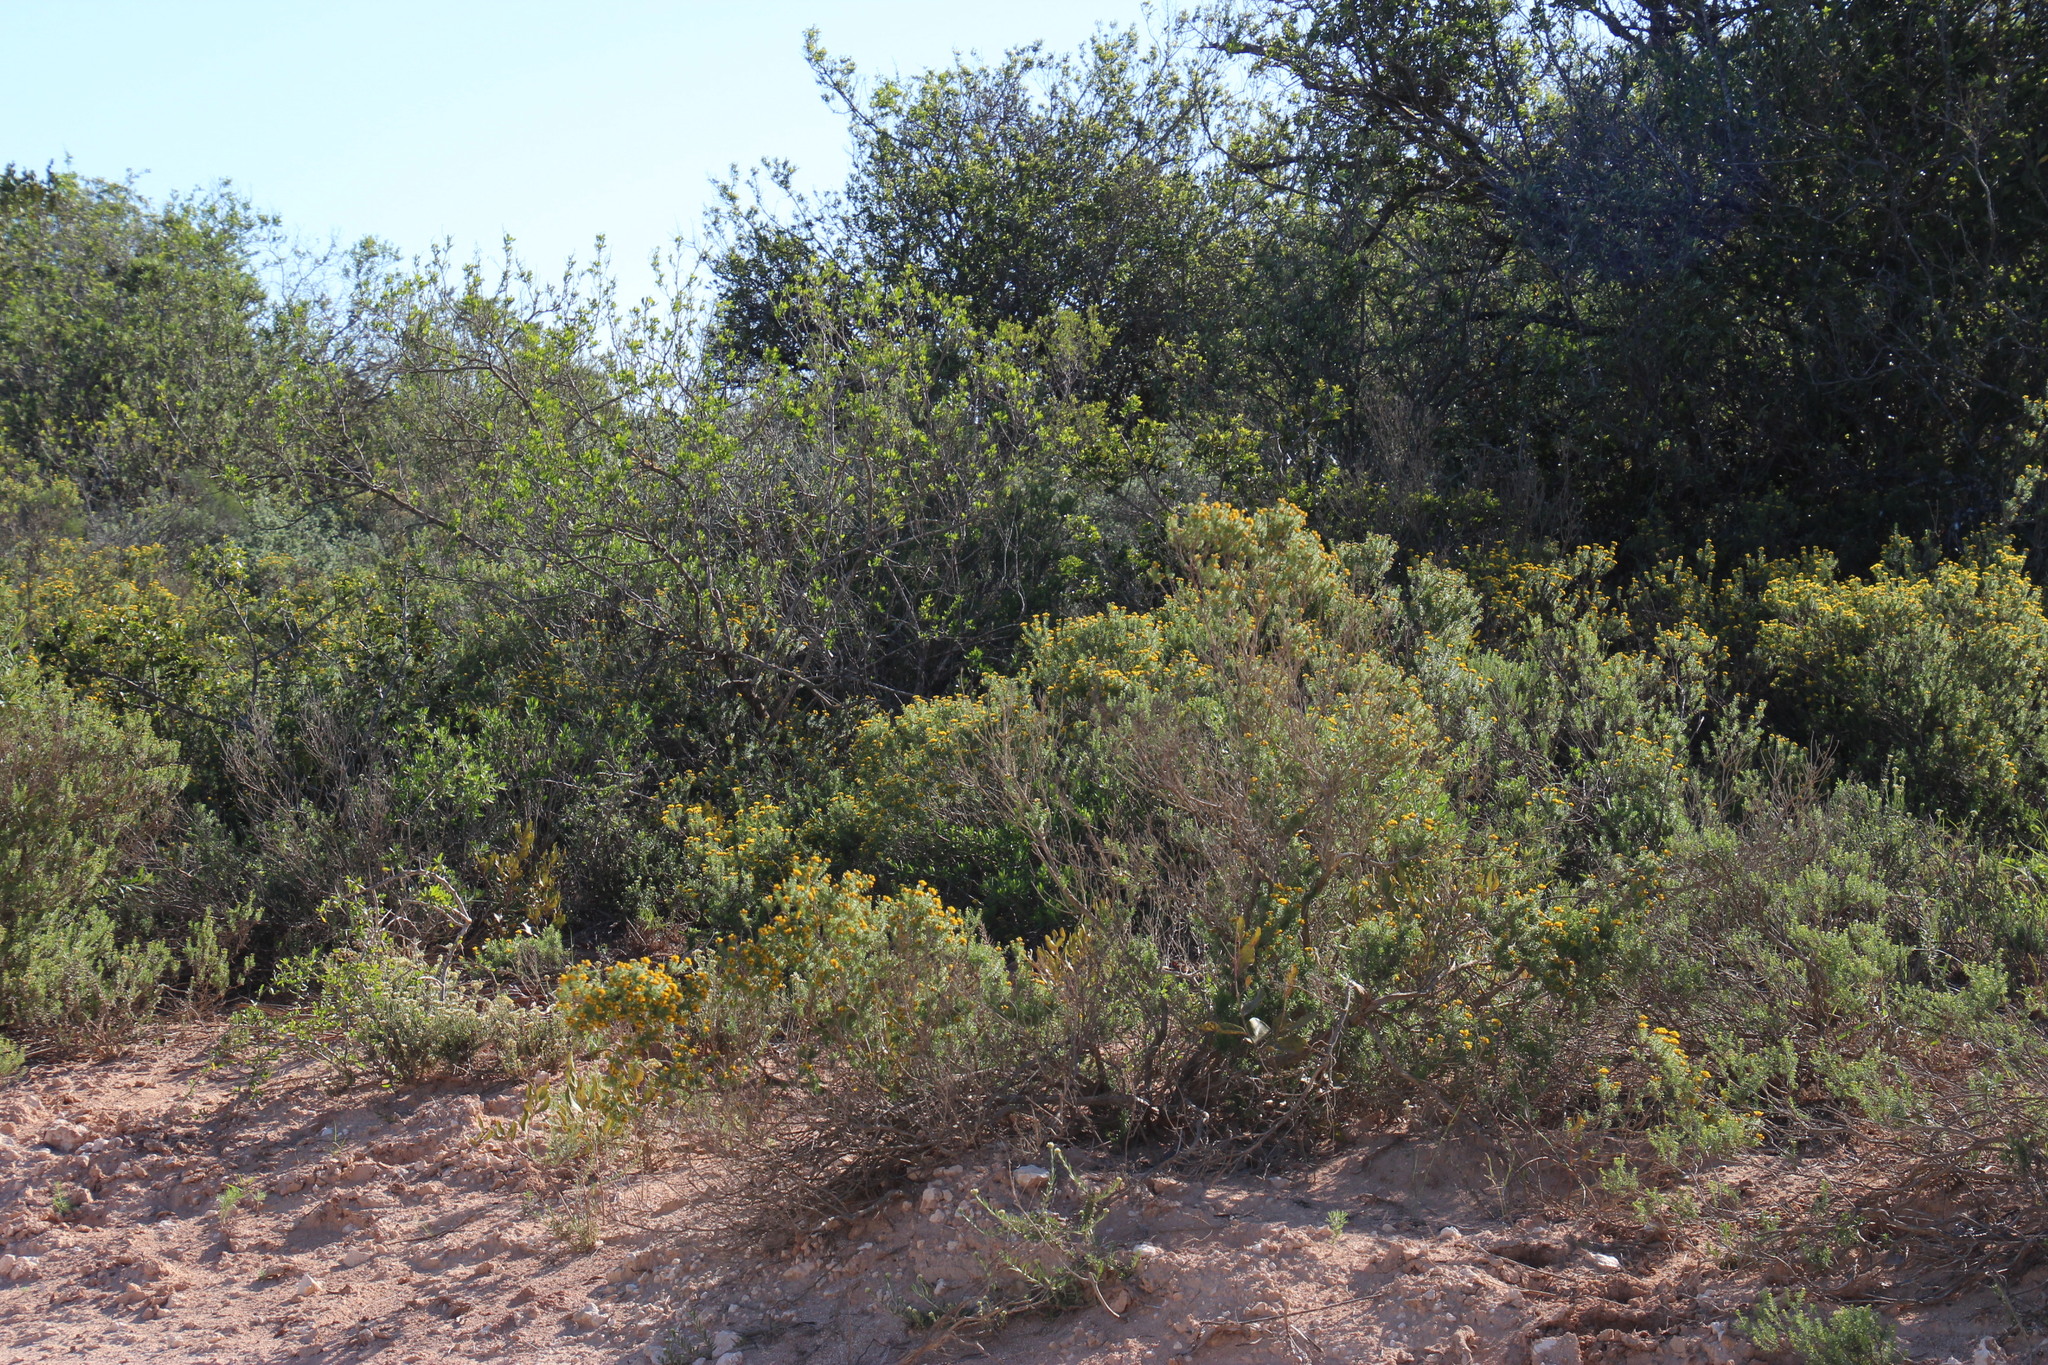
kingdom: Plantae
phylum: Tracheophyta
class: Magnoliopsida
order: Asterales
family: Asteraceae
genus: Oedera
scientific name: Oedera genistifolia
